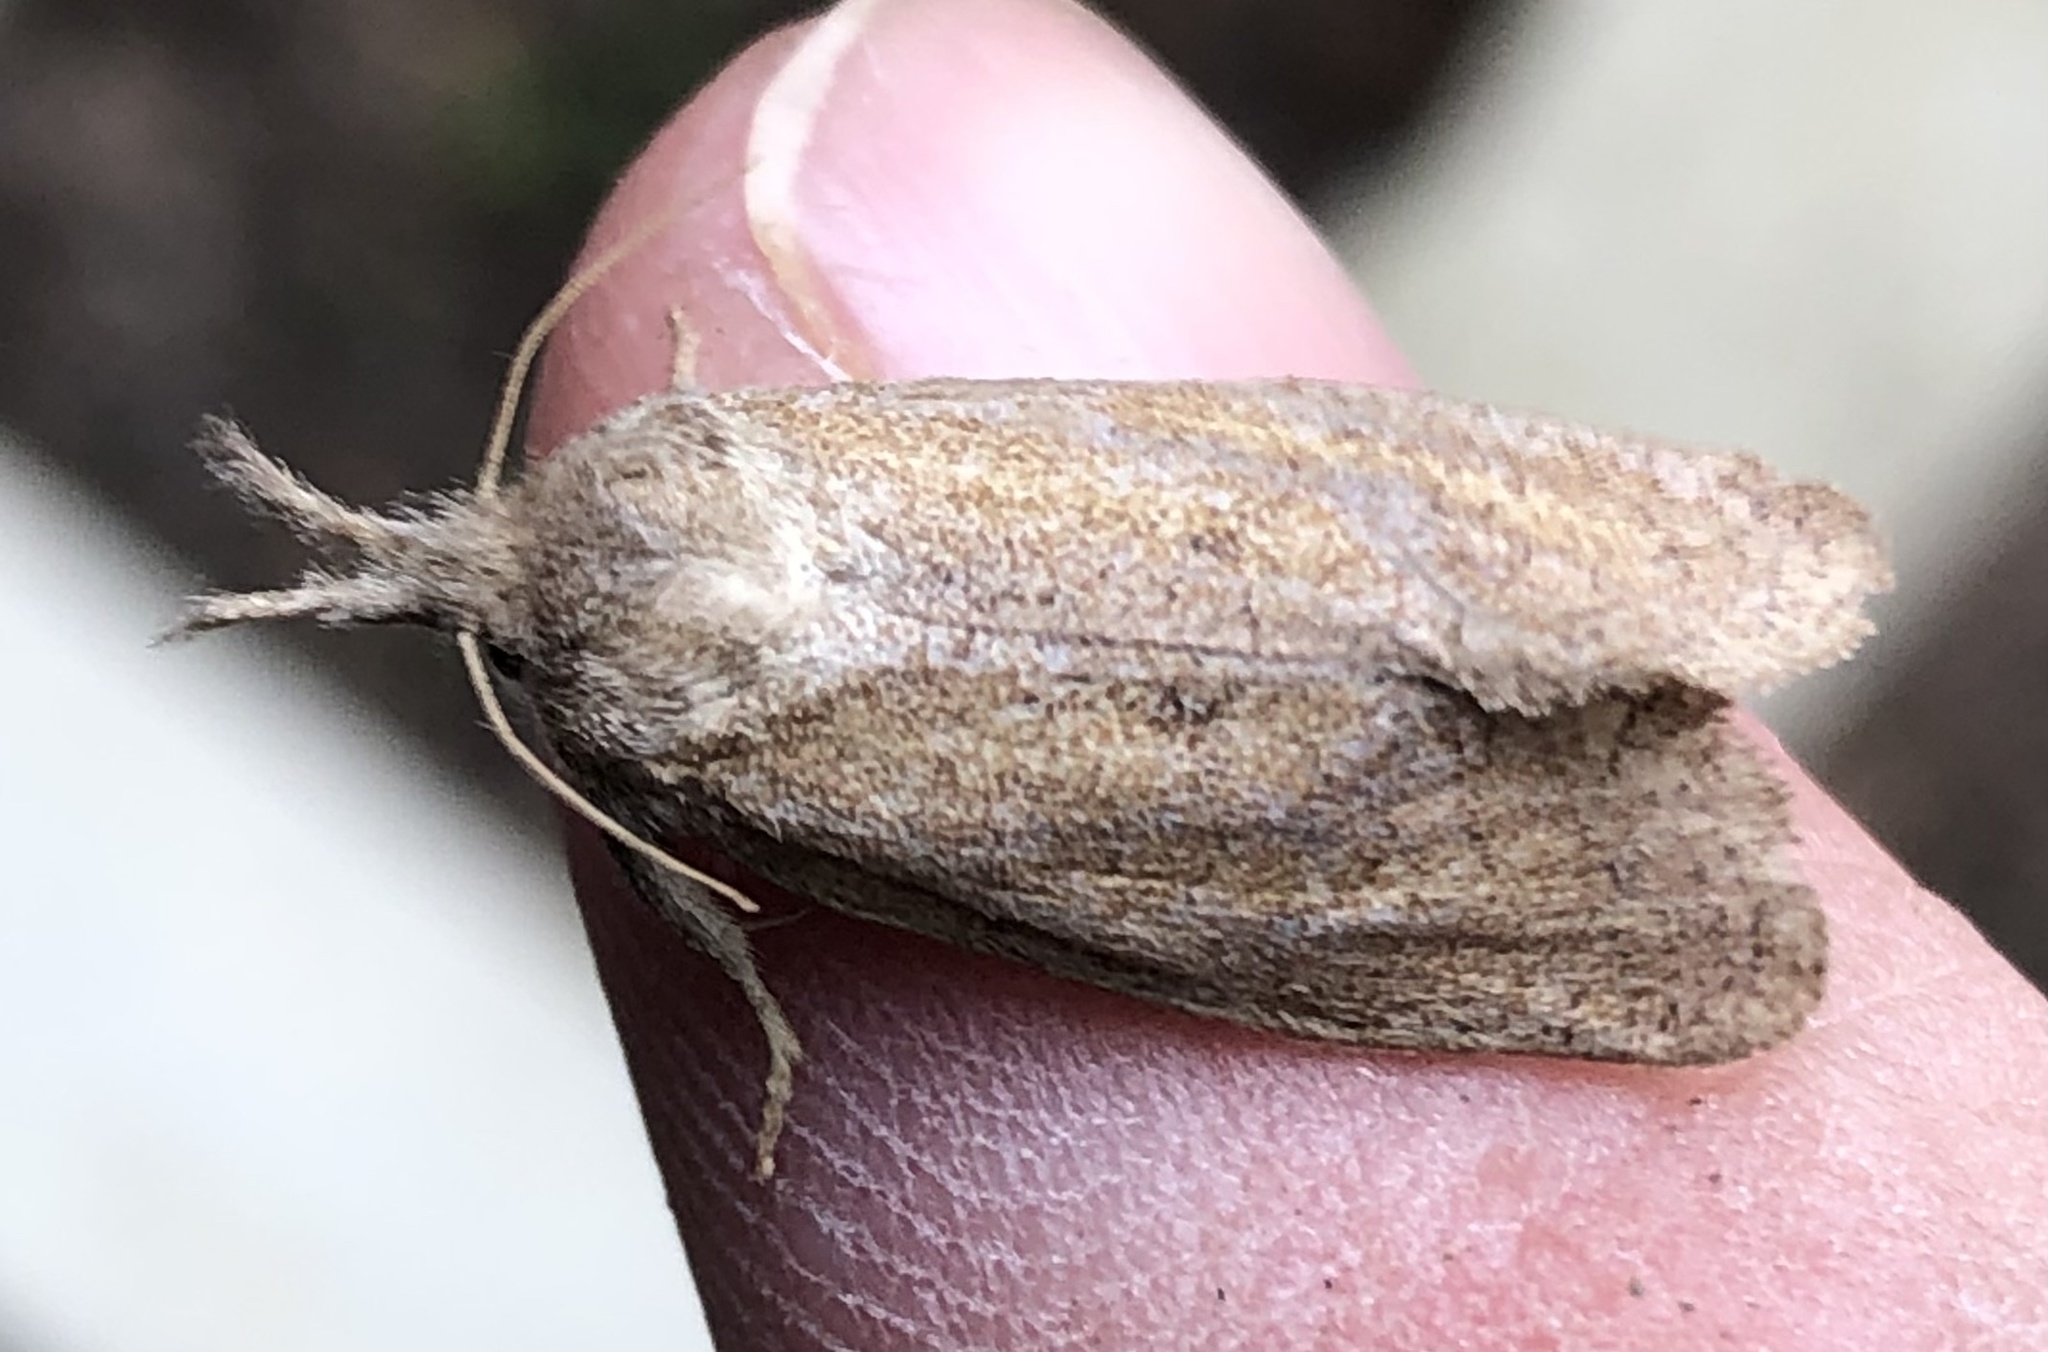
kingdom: Animalia
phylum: Arthropoda
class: Insecta
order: Lepidoptera
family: Tineidae
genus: Acrolophus
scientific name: Acrolophus plumifrontella
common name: Eastern grass tubeworm moth
